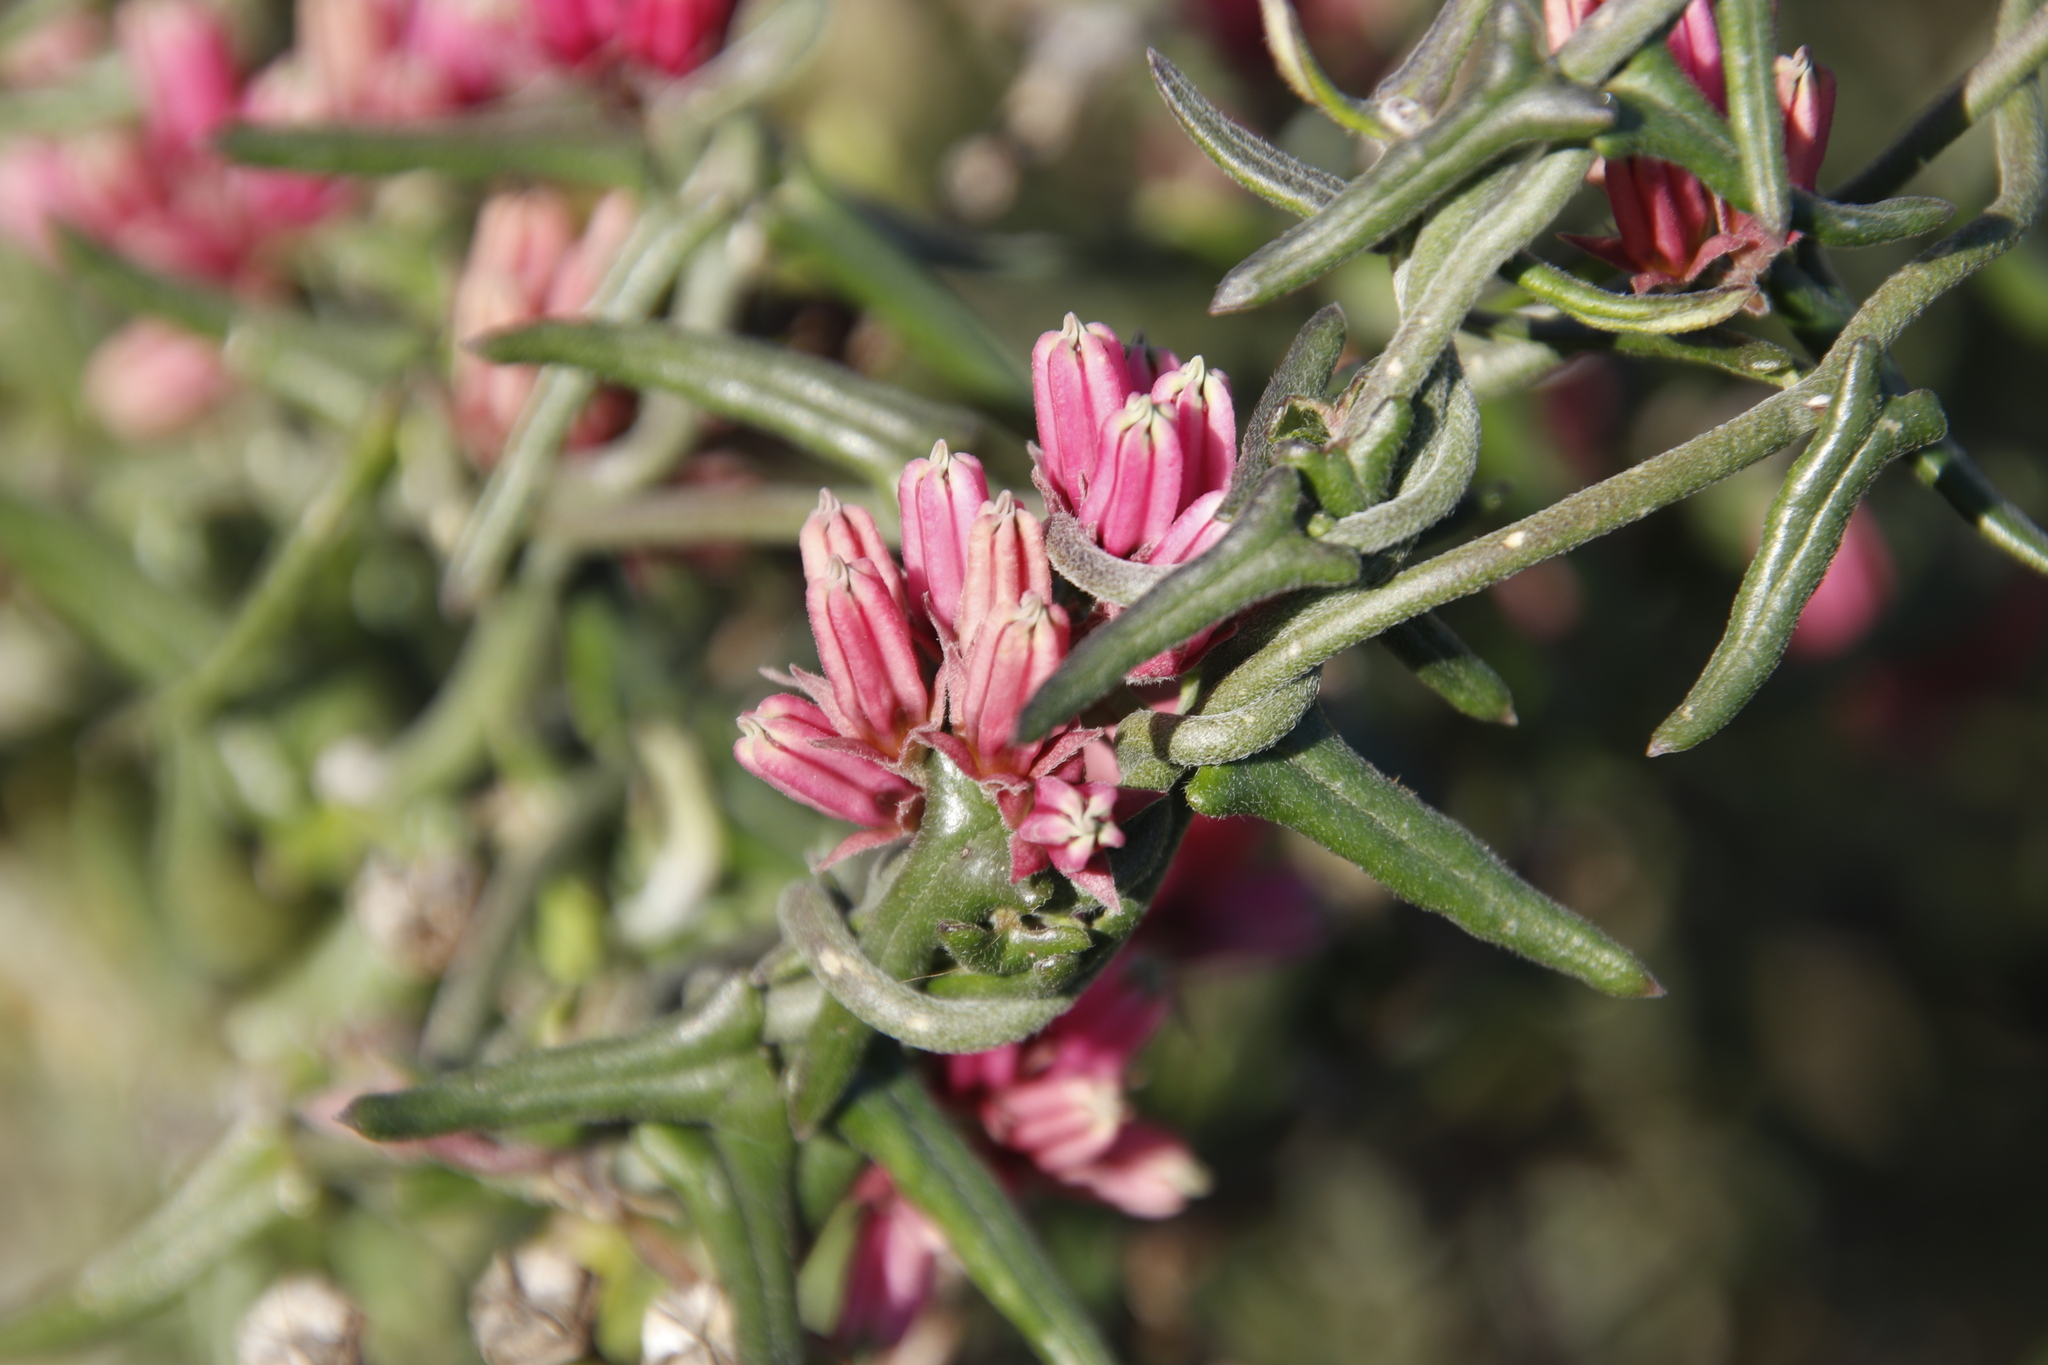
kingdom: Plantae
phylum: Tracheophyta
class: Magnoliopsida
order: Gentianales
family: Apocynaceae
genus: Microloma
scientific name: Microloma sagittatum
